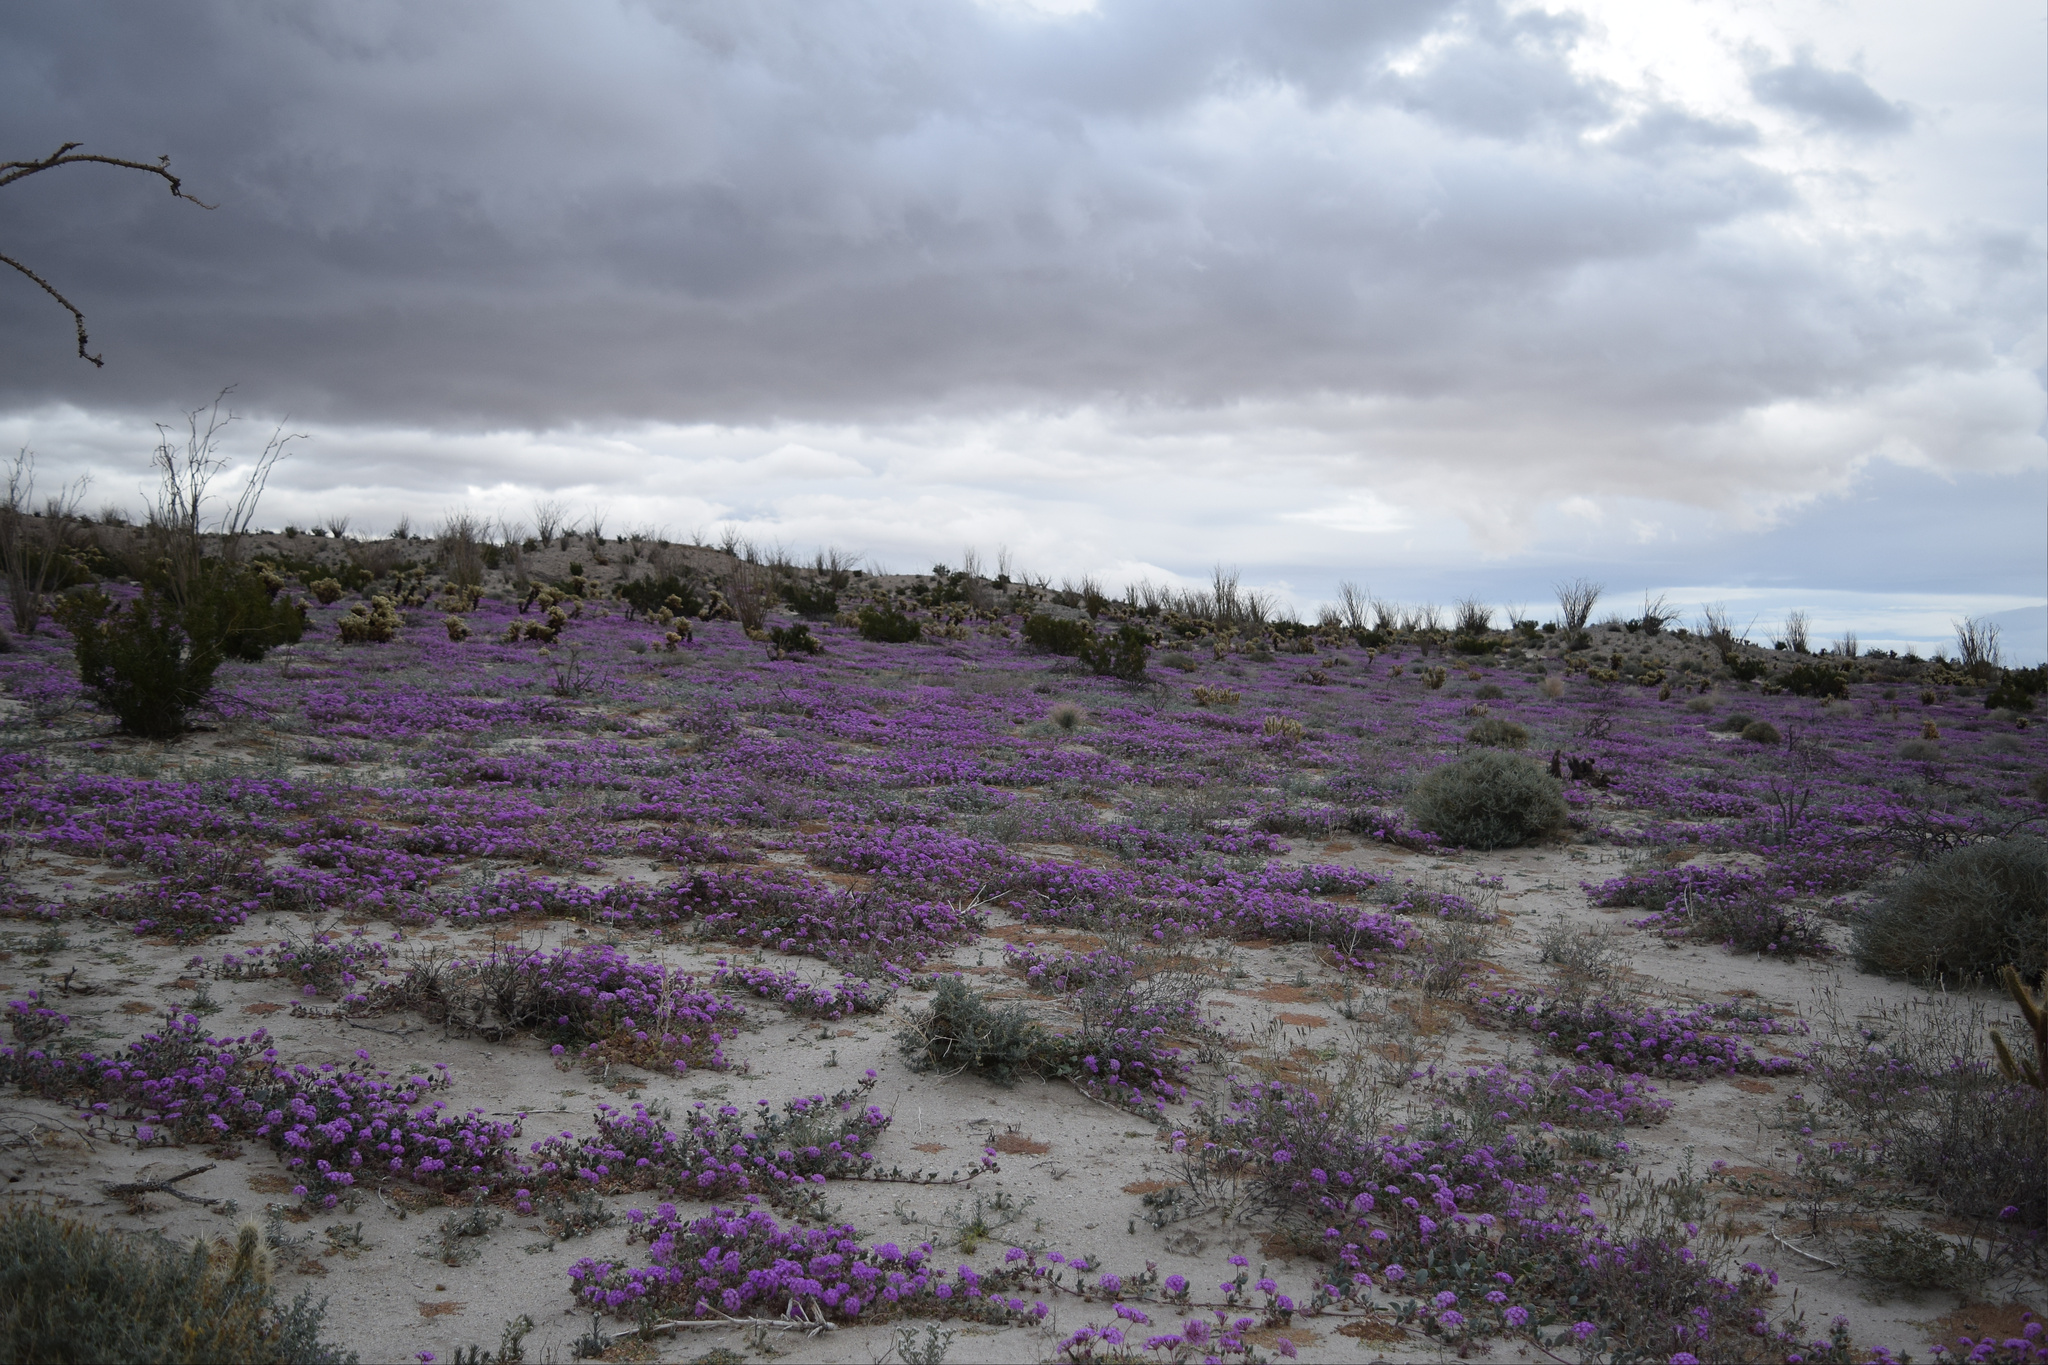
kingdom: Plantae
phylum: Tracheophyta
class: Magnoliopsida
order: Caryophyllales
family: Nyctaginaceae
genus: Abronia
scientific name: Abronia villosa
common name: Desert sand-verbena
